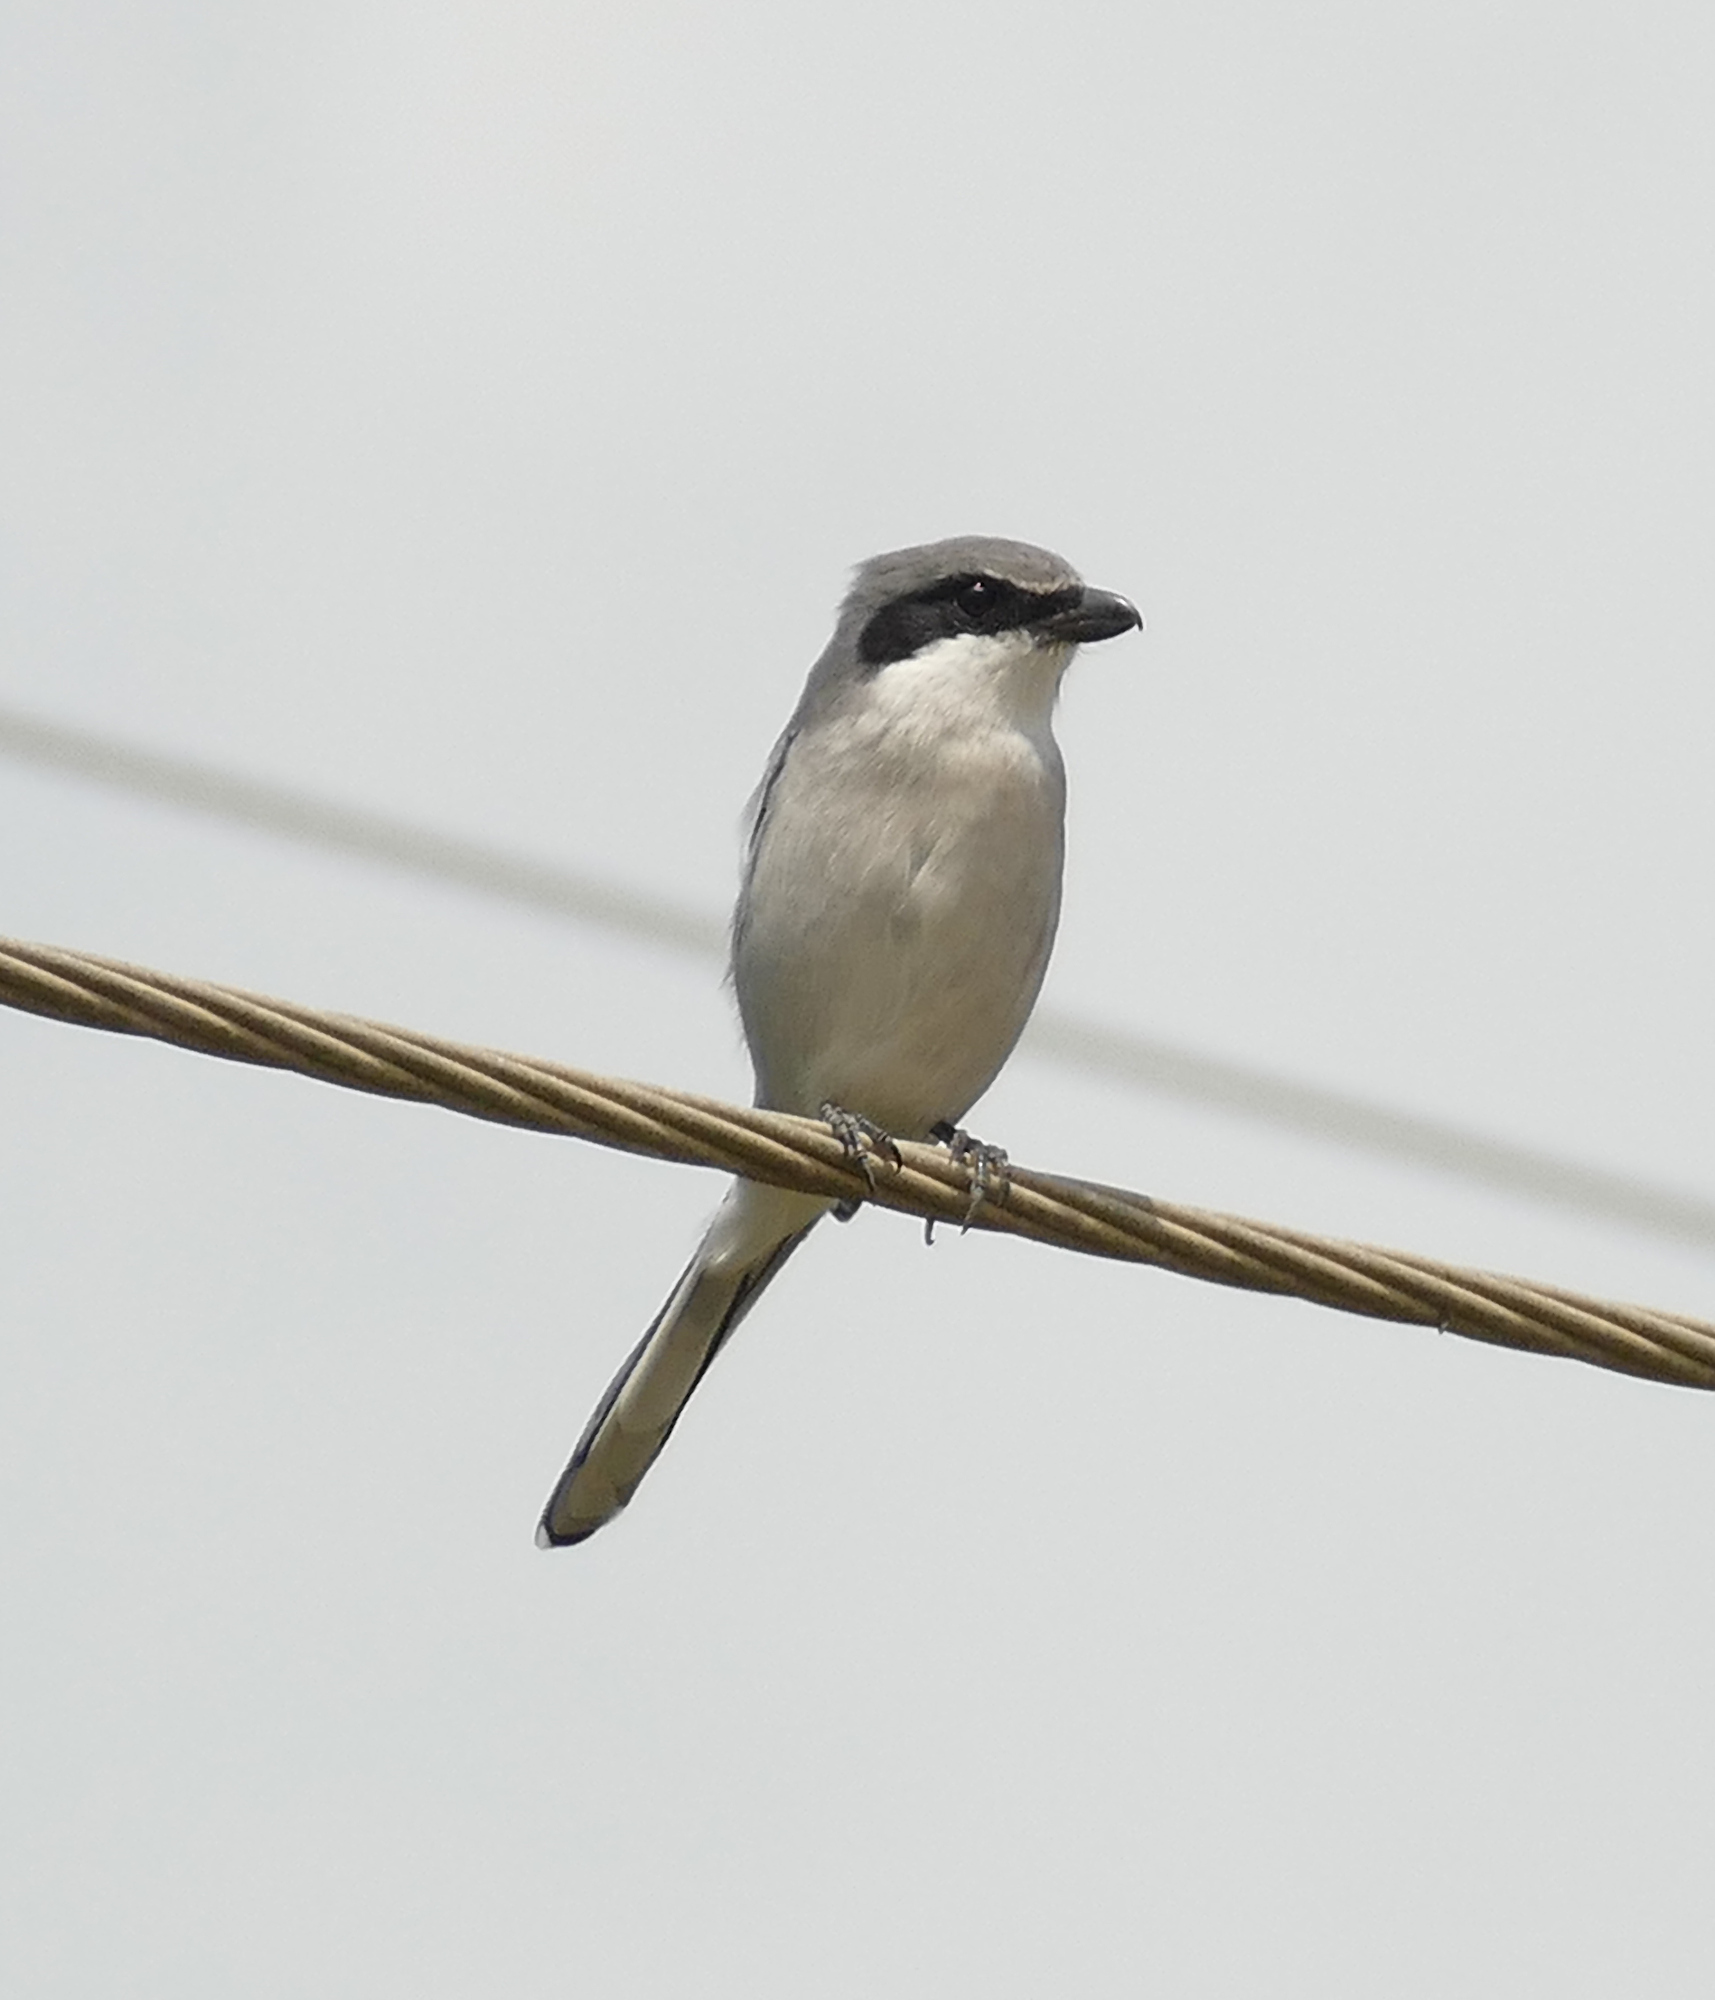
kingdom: Animalia
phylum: Chordata
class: Aves
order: Passeriformes
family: Laniidae
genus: Lanius
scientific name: Lanius ludovicianus
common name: Loggerhead shrike
